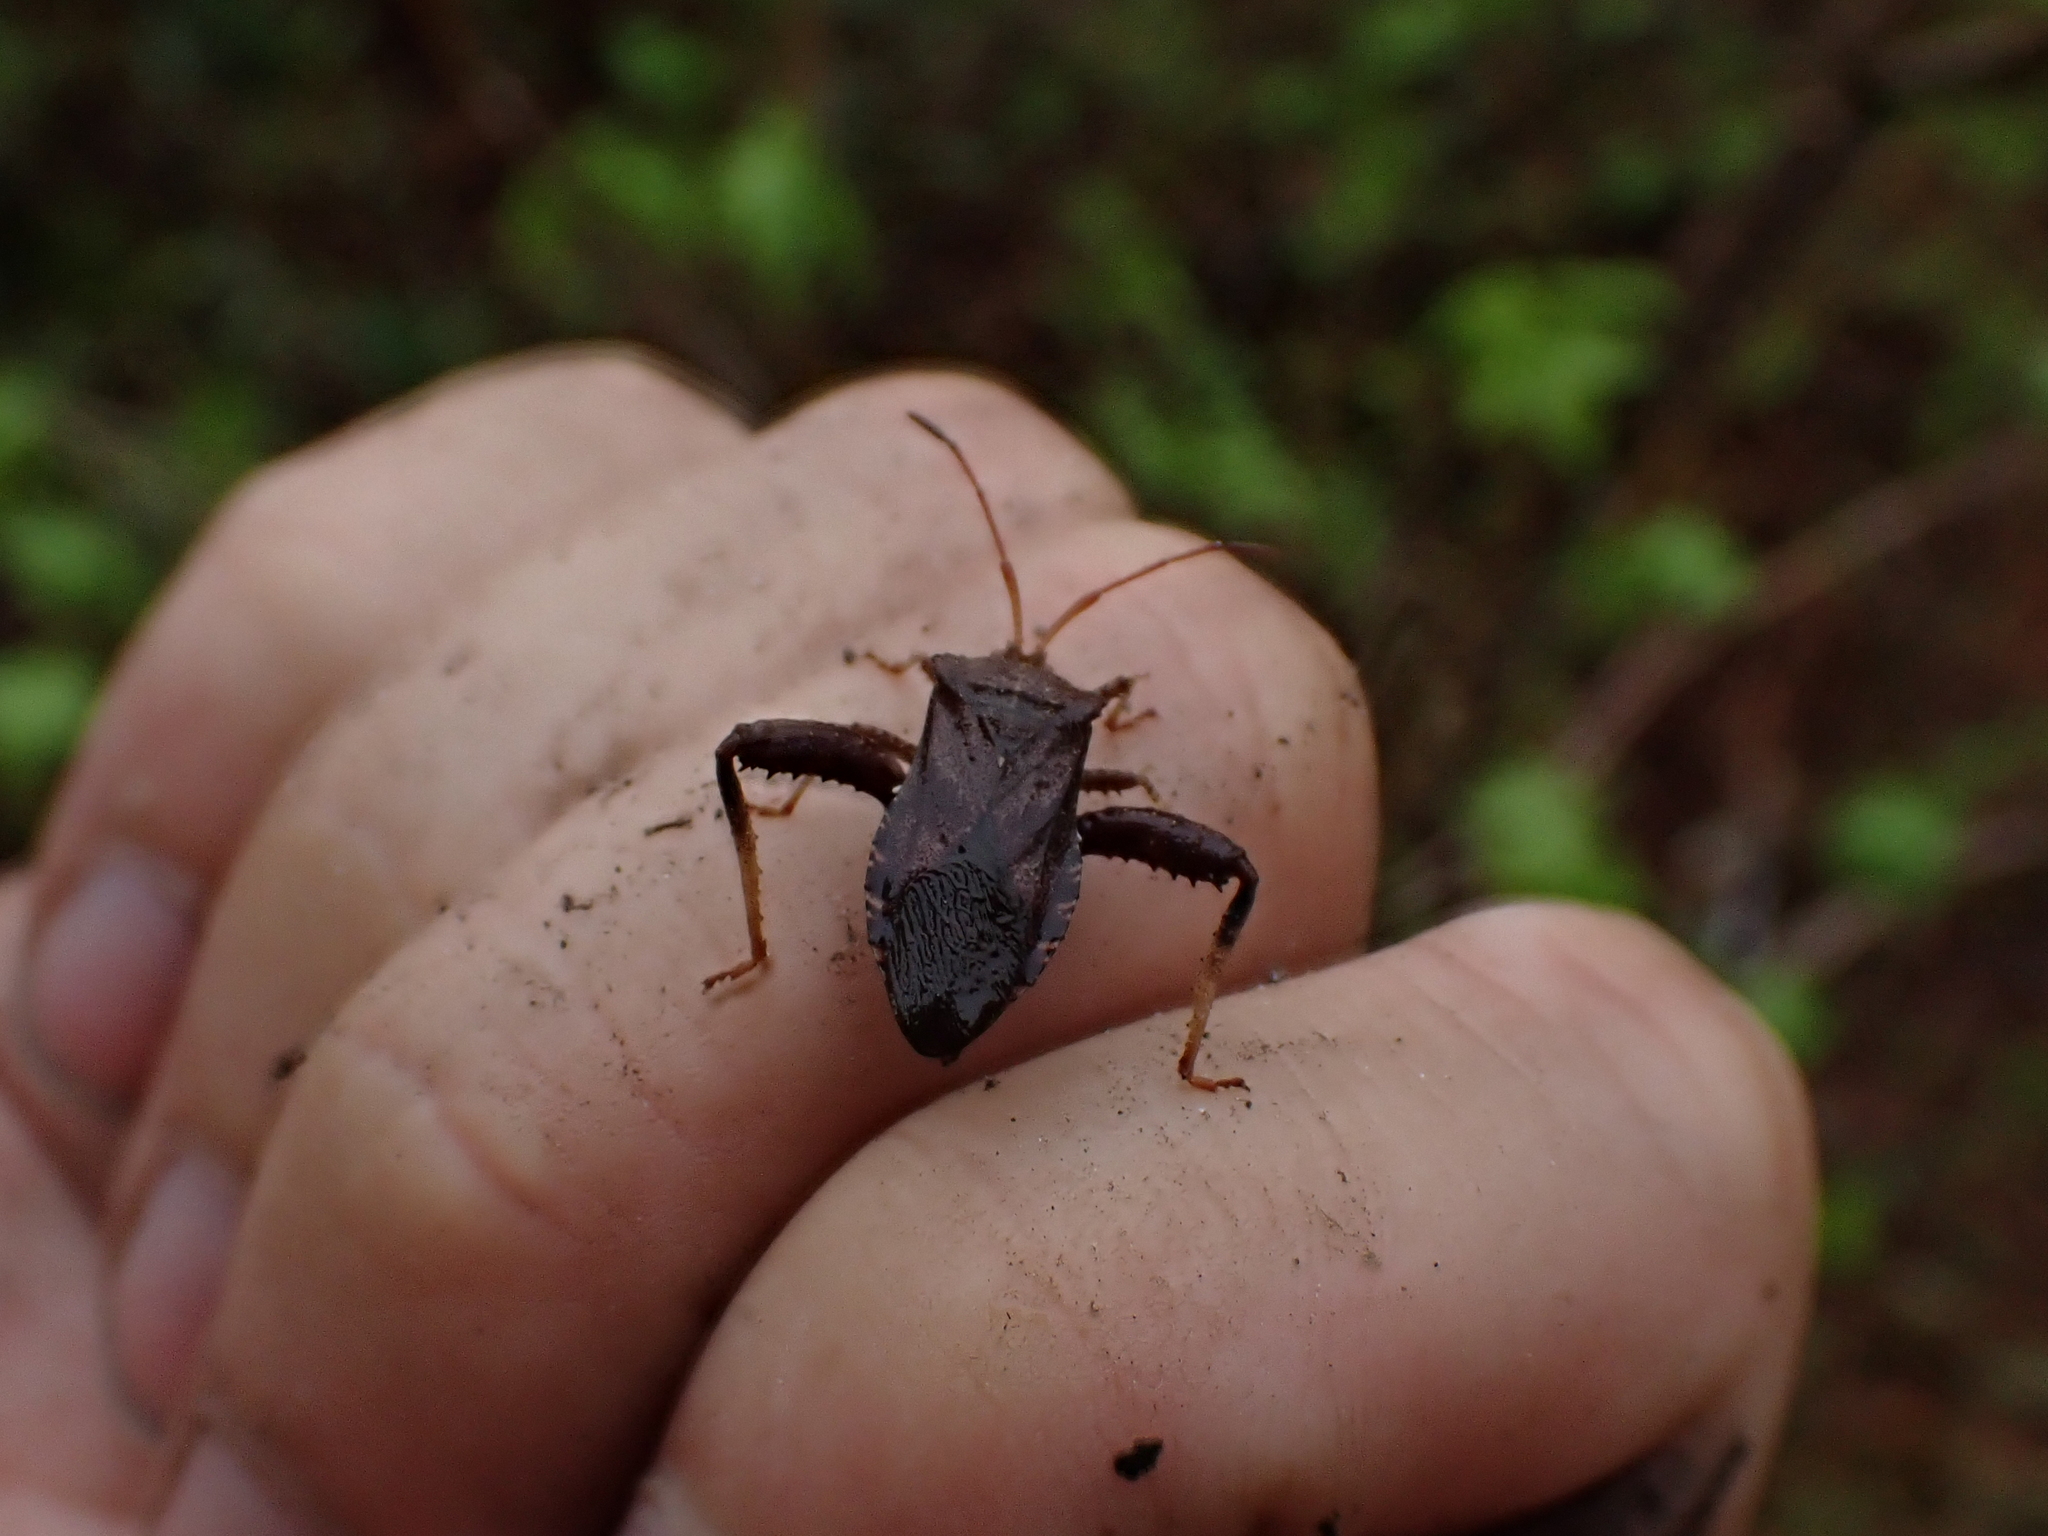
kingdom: Animalia
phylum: Arthropoda
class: Insecta
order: Hemiptera
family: Coreidae
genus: Euthochtha
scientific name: Euthochtha galeator
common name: Helmeted squash bug
